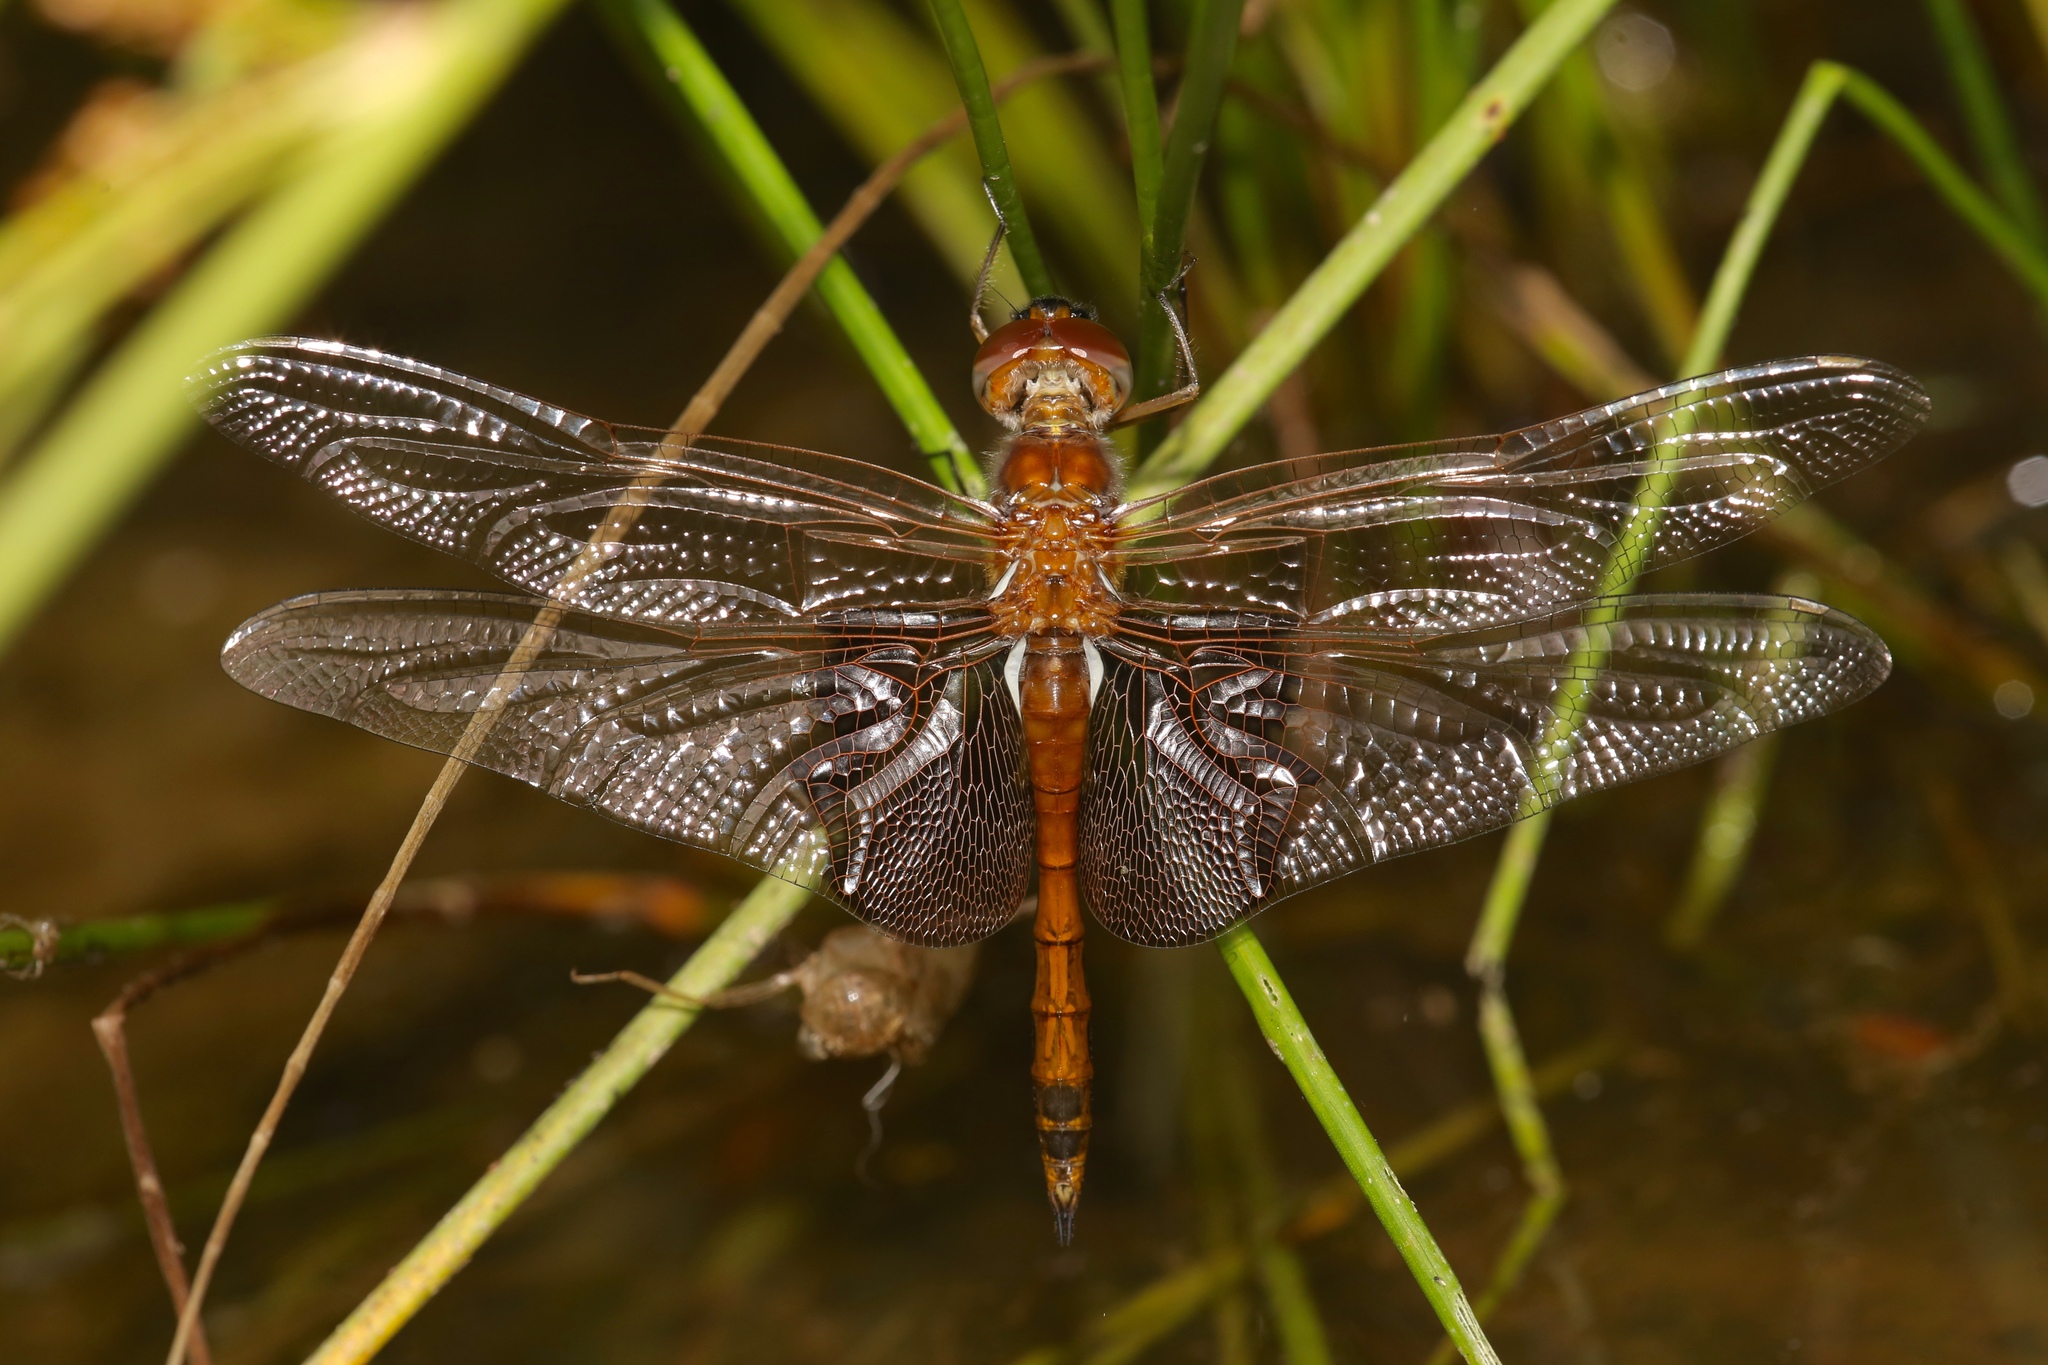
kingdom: Animalia
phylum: Arthropoda
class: Insecta
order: Odonata
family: Libellulidae
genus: Tramea
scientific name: Tramea carolina
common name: Carolina saddlebags
